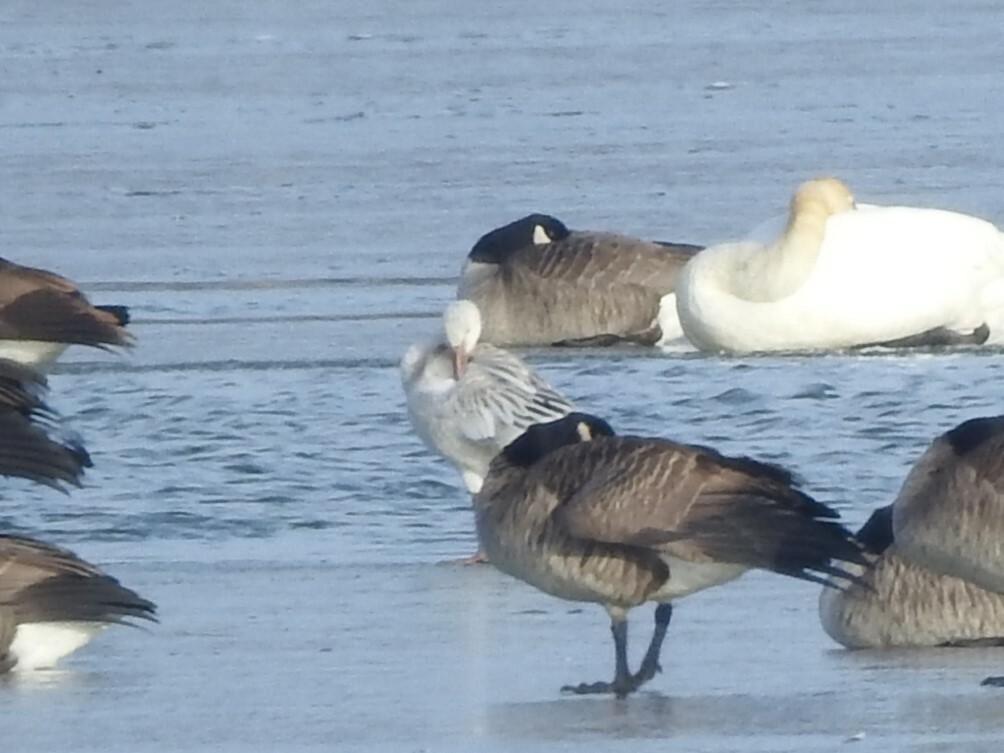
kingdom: Animalia
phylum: Chordata
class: Aves
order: Anseriformes
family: Anatidae
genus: Anser
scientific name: Anser caerulescens
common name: Snow goose
